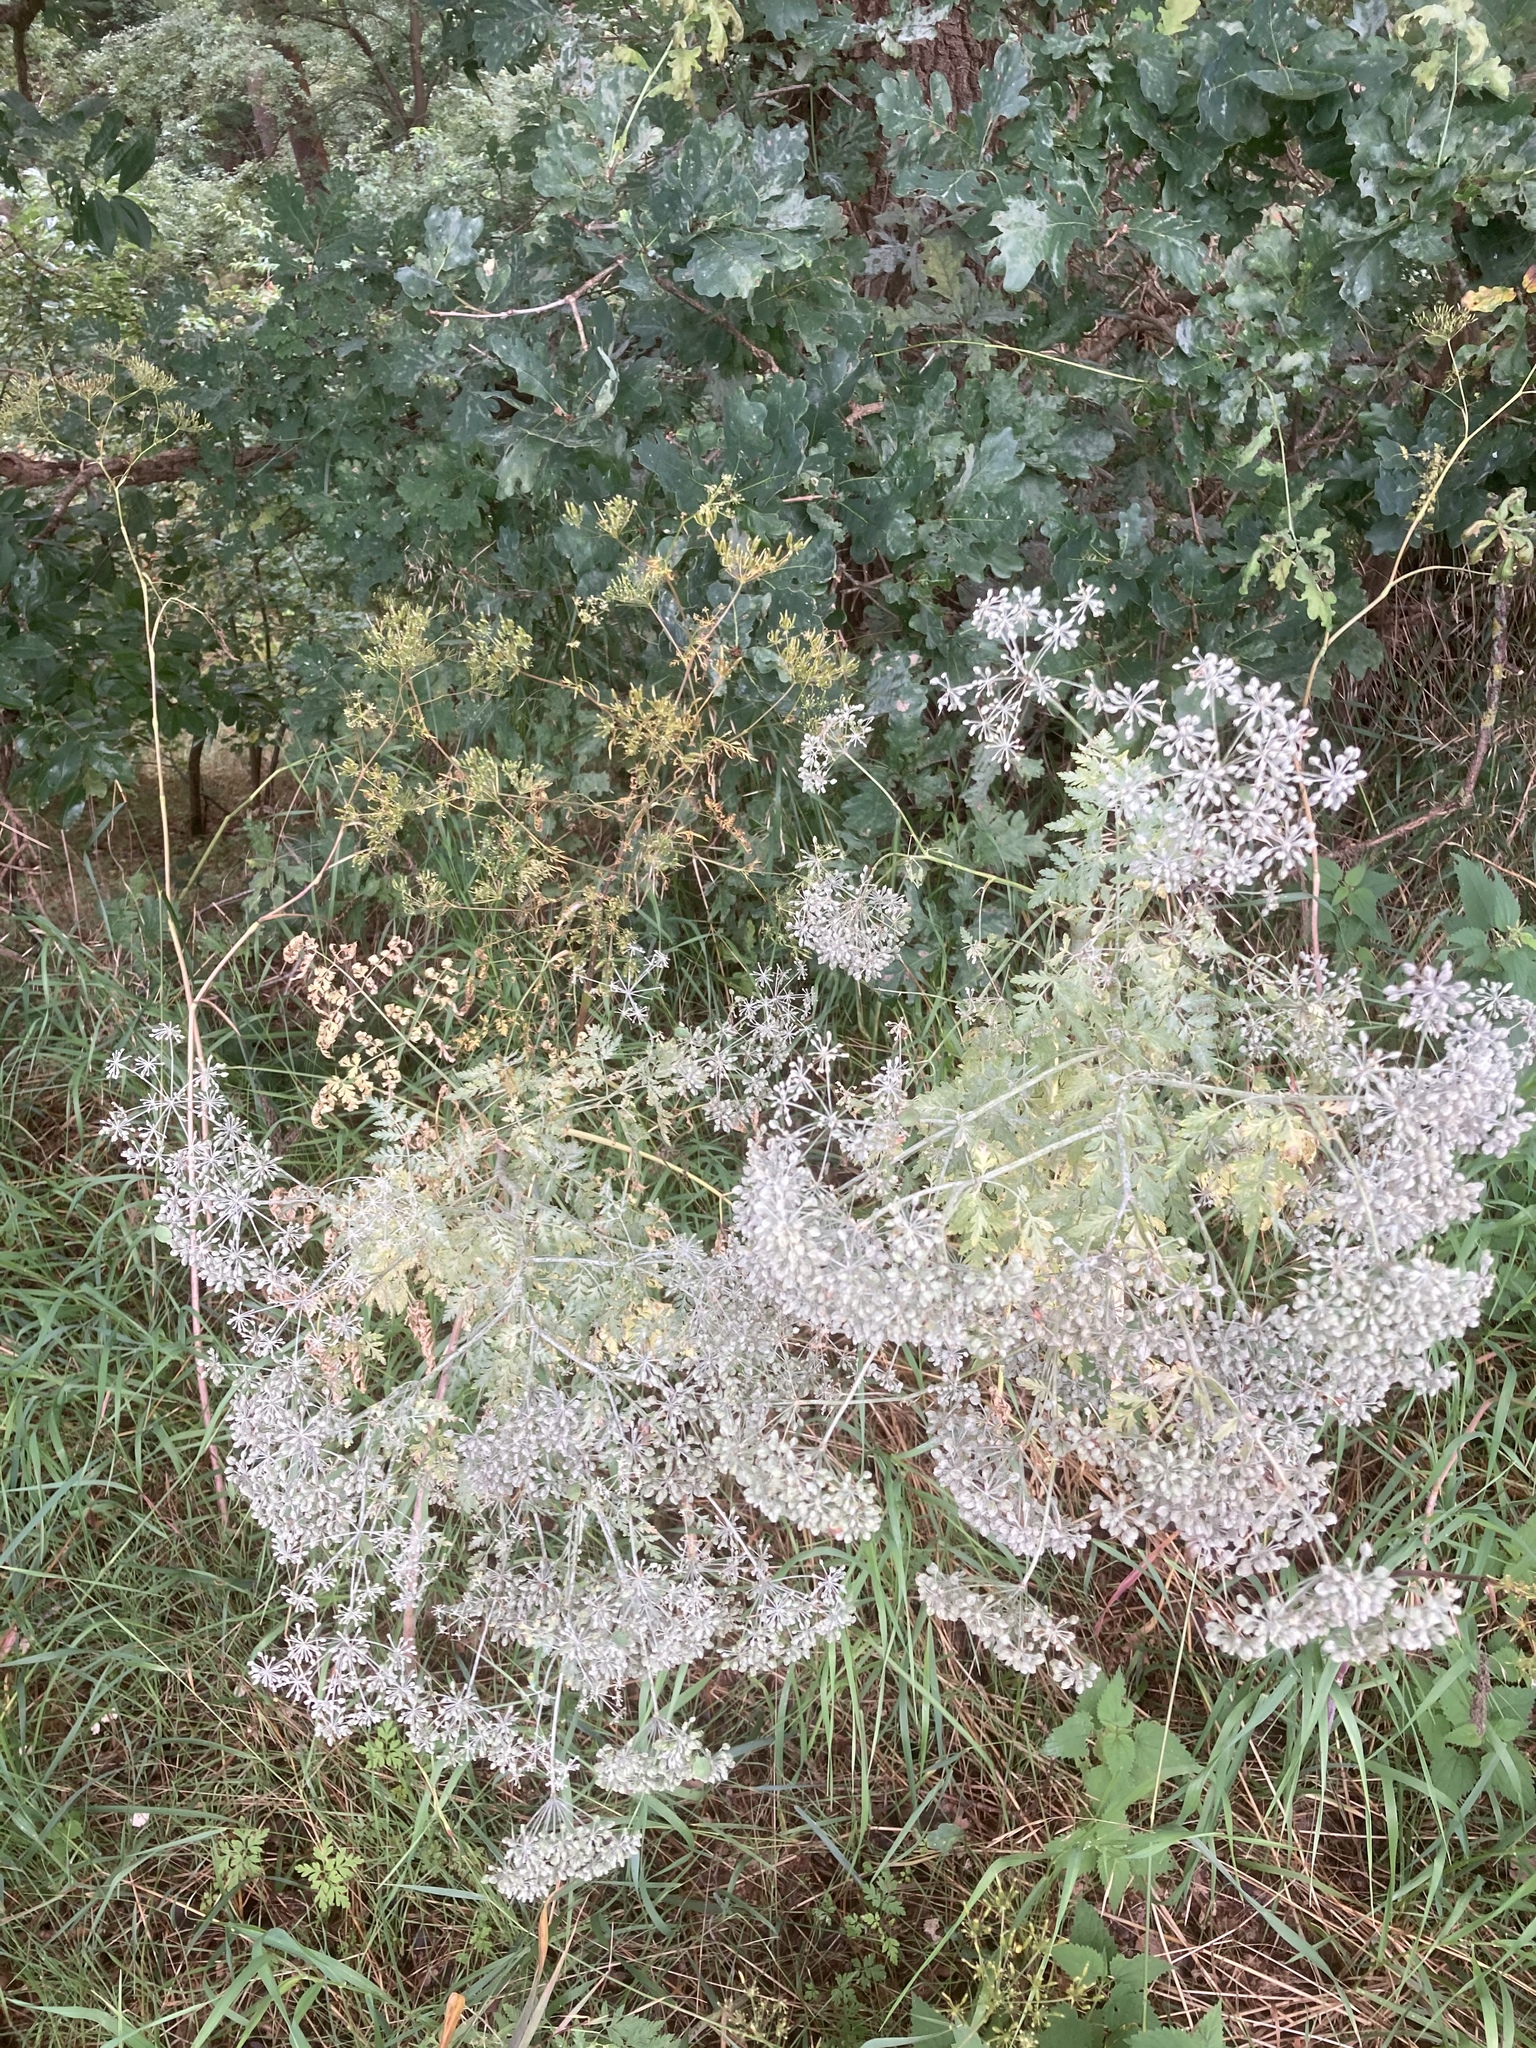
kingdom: Plantae
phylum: Tracheophyta
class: Magnoliopsida
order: Apiales
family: Apiaceae
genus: Falcaria
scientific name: Falcaria vulgaris
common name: Longleaf
